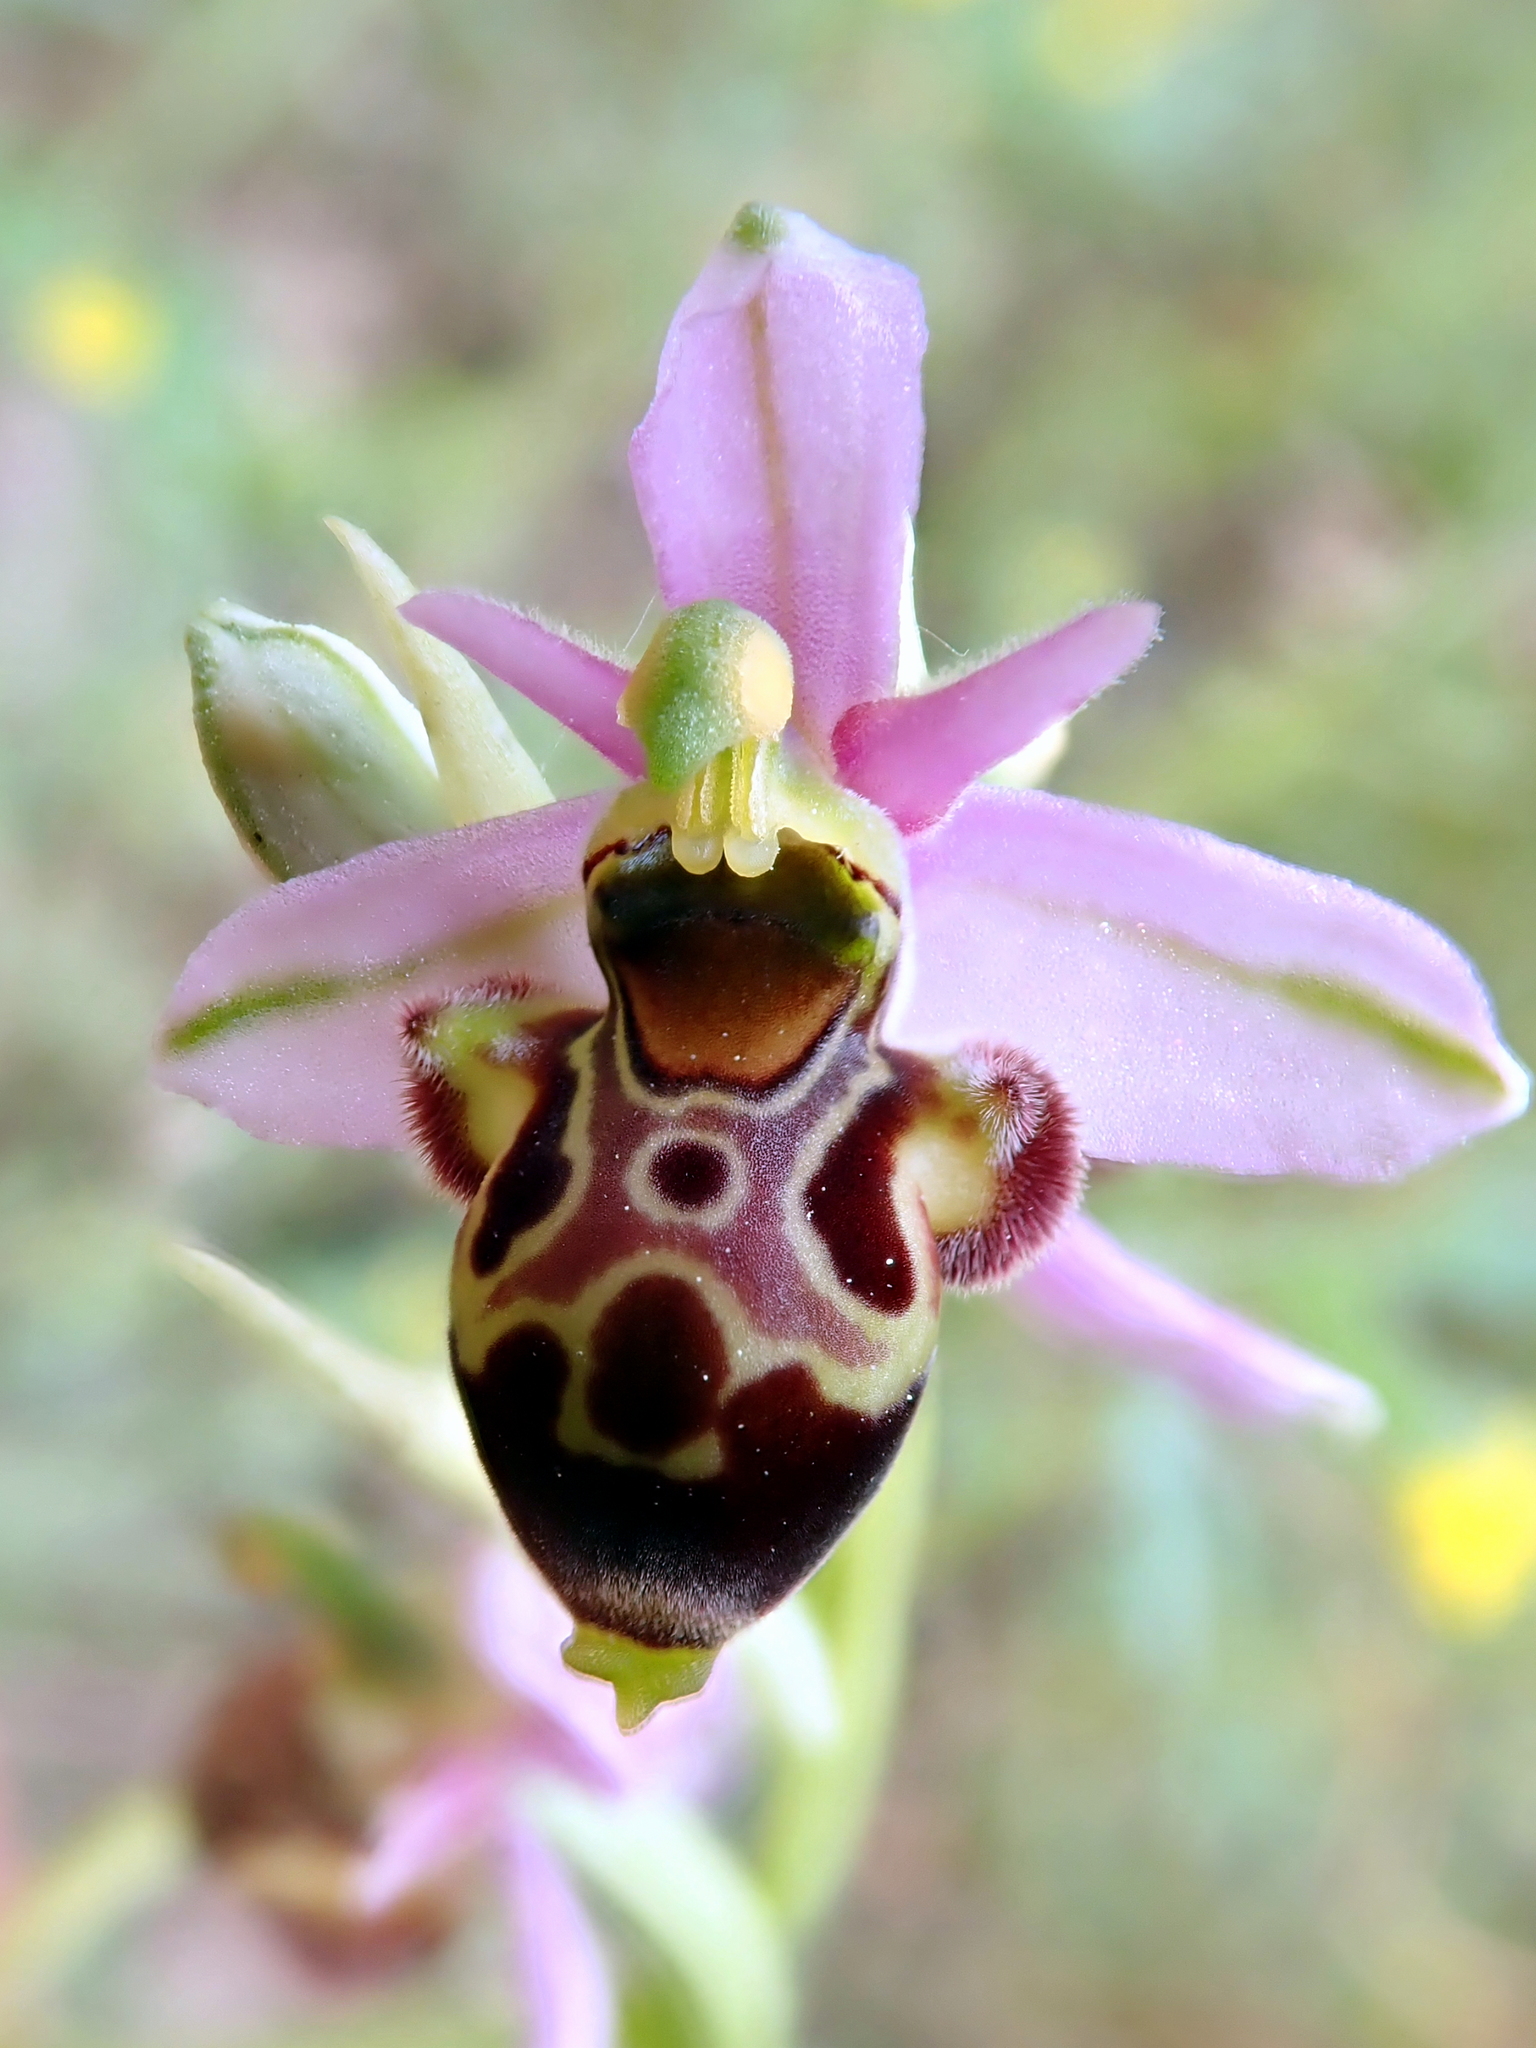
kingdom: Plantae
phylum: Tracheophyta
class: Liliopsida
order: Asparagales
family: Orchidaceae
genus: Ophrys
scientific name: Ophrys scolopax
